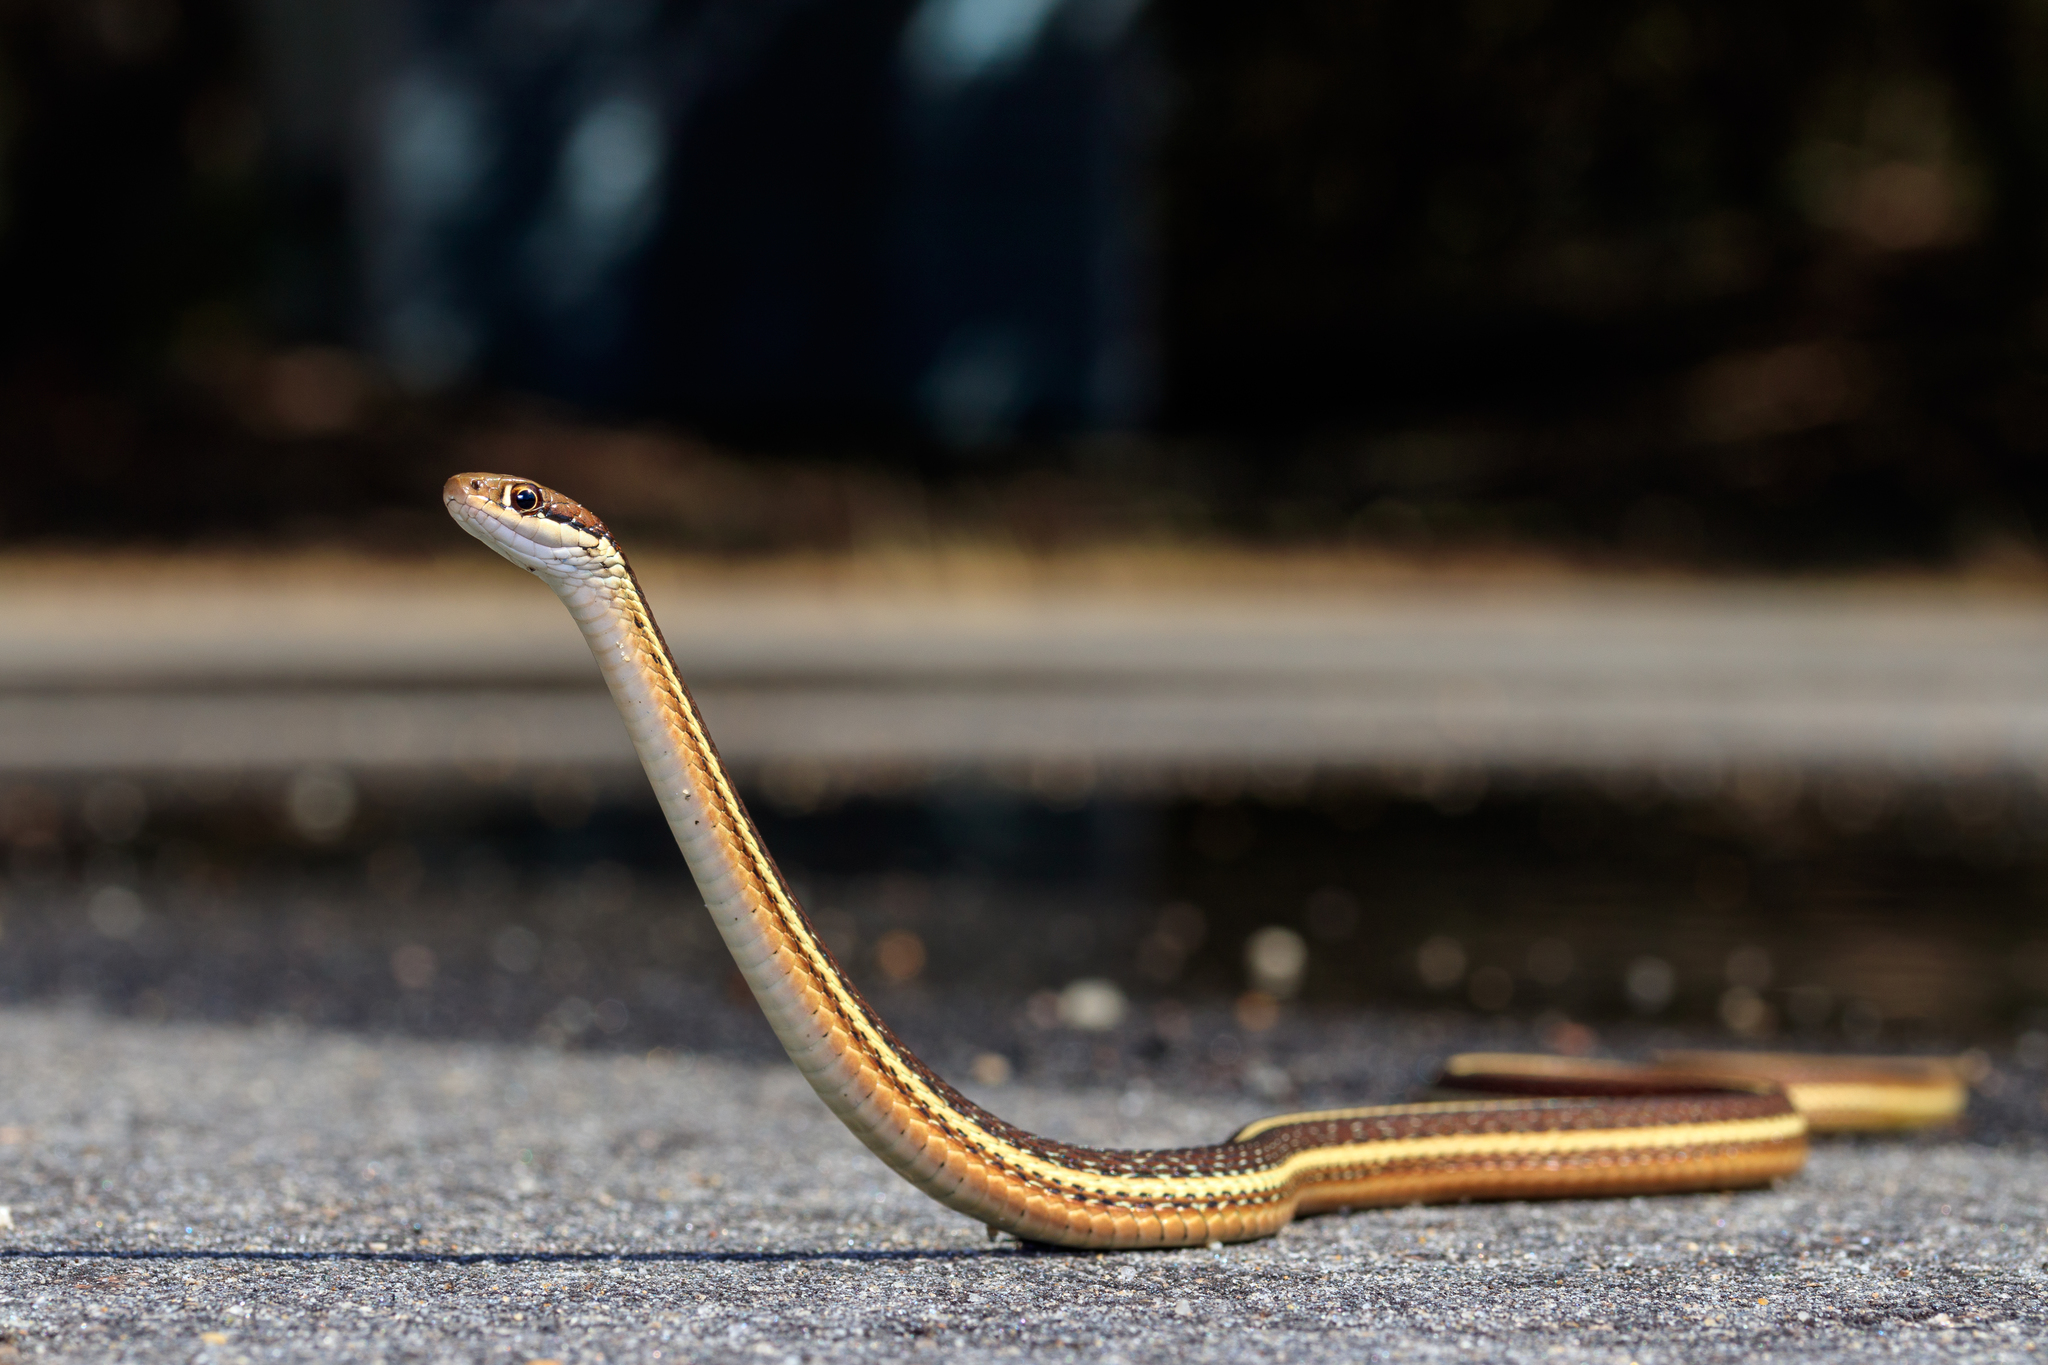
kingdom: Animalia
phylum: Chordata
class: Squamata
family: Colubridae
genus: Thamnophis
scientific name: Thamnophis saurita
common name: Eastern ribbonsnake
